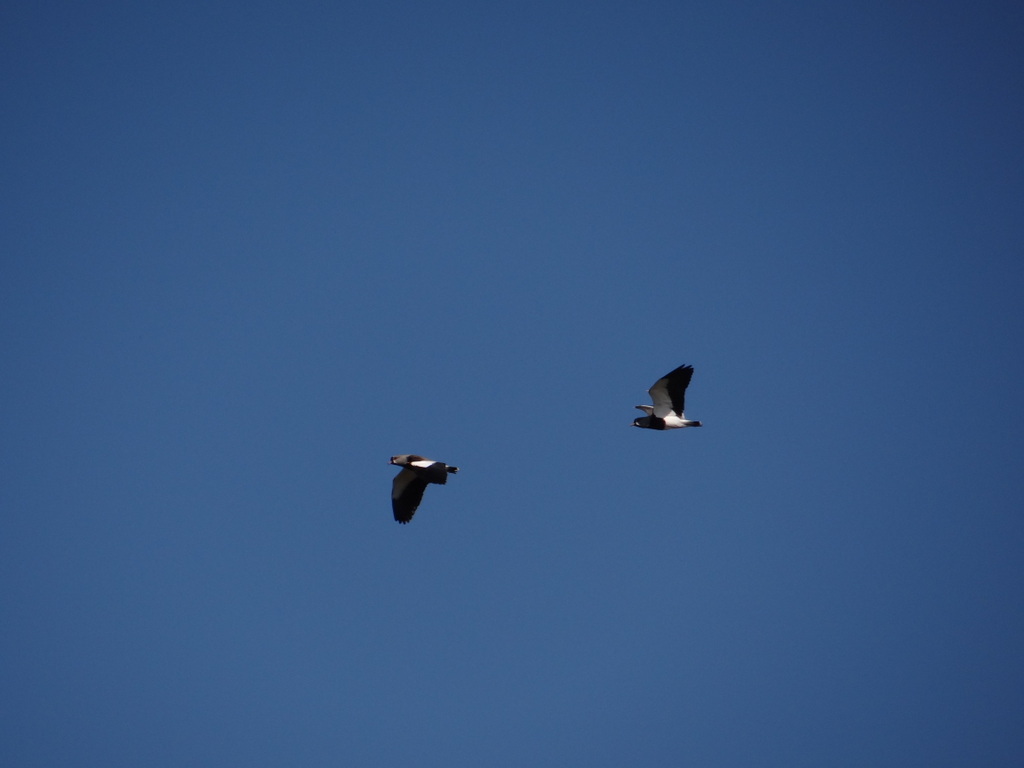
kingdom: Animalia
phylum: Chordata
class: Aves
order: Charadriiformes
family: Charadriidae
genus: Vanellus
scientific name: Vanellus chilensis
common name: Southern lapwing
